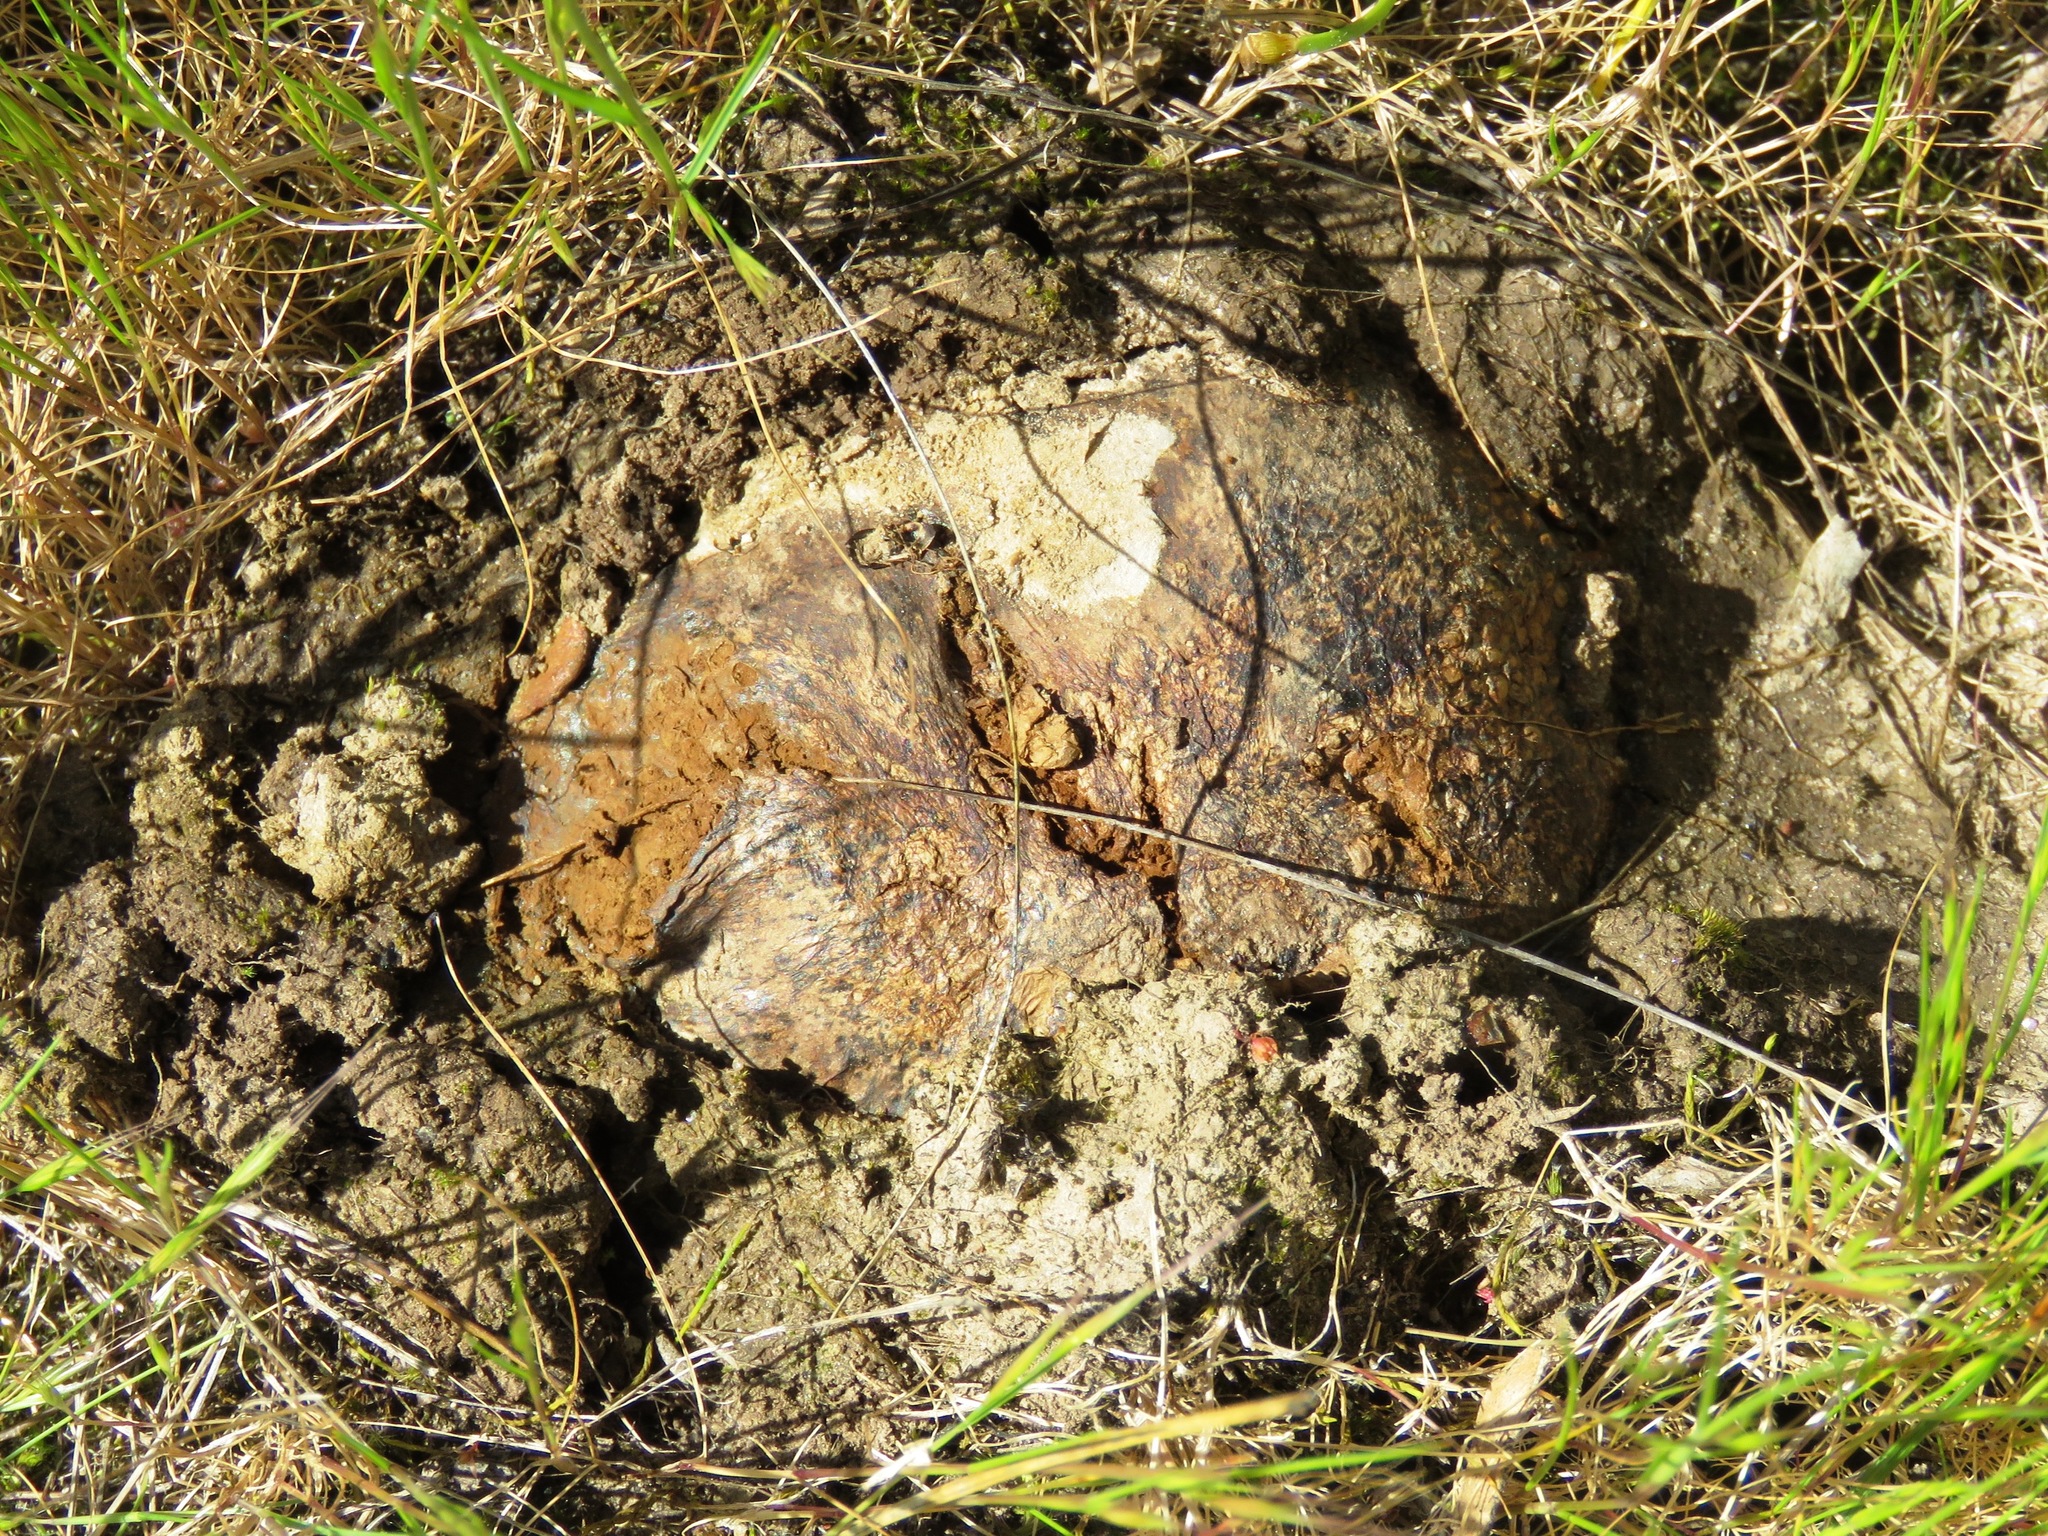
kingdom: Fungi
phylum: Basidiomycota
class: Agaricomycetes
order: Boletales
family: Sclerodermataceae
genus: Pisolithus
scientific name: Pisolithus arhizus
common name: Dyeball
